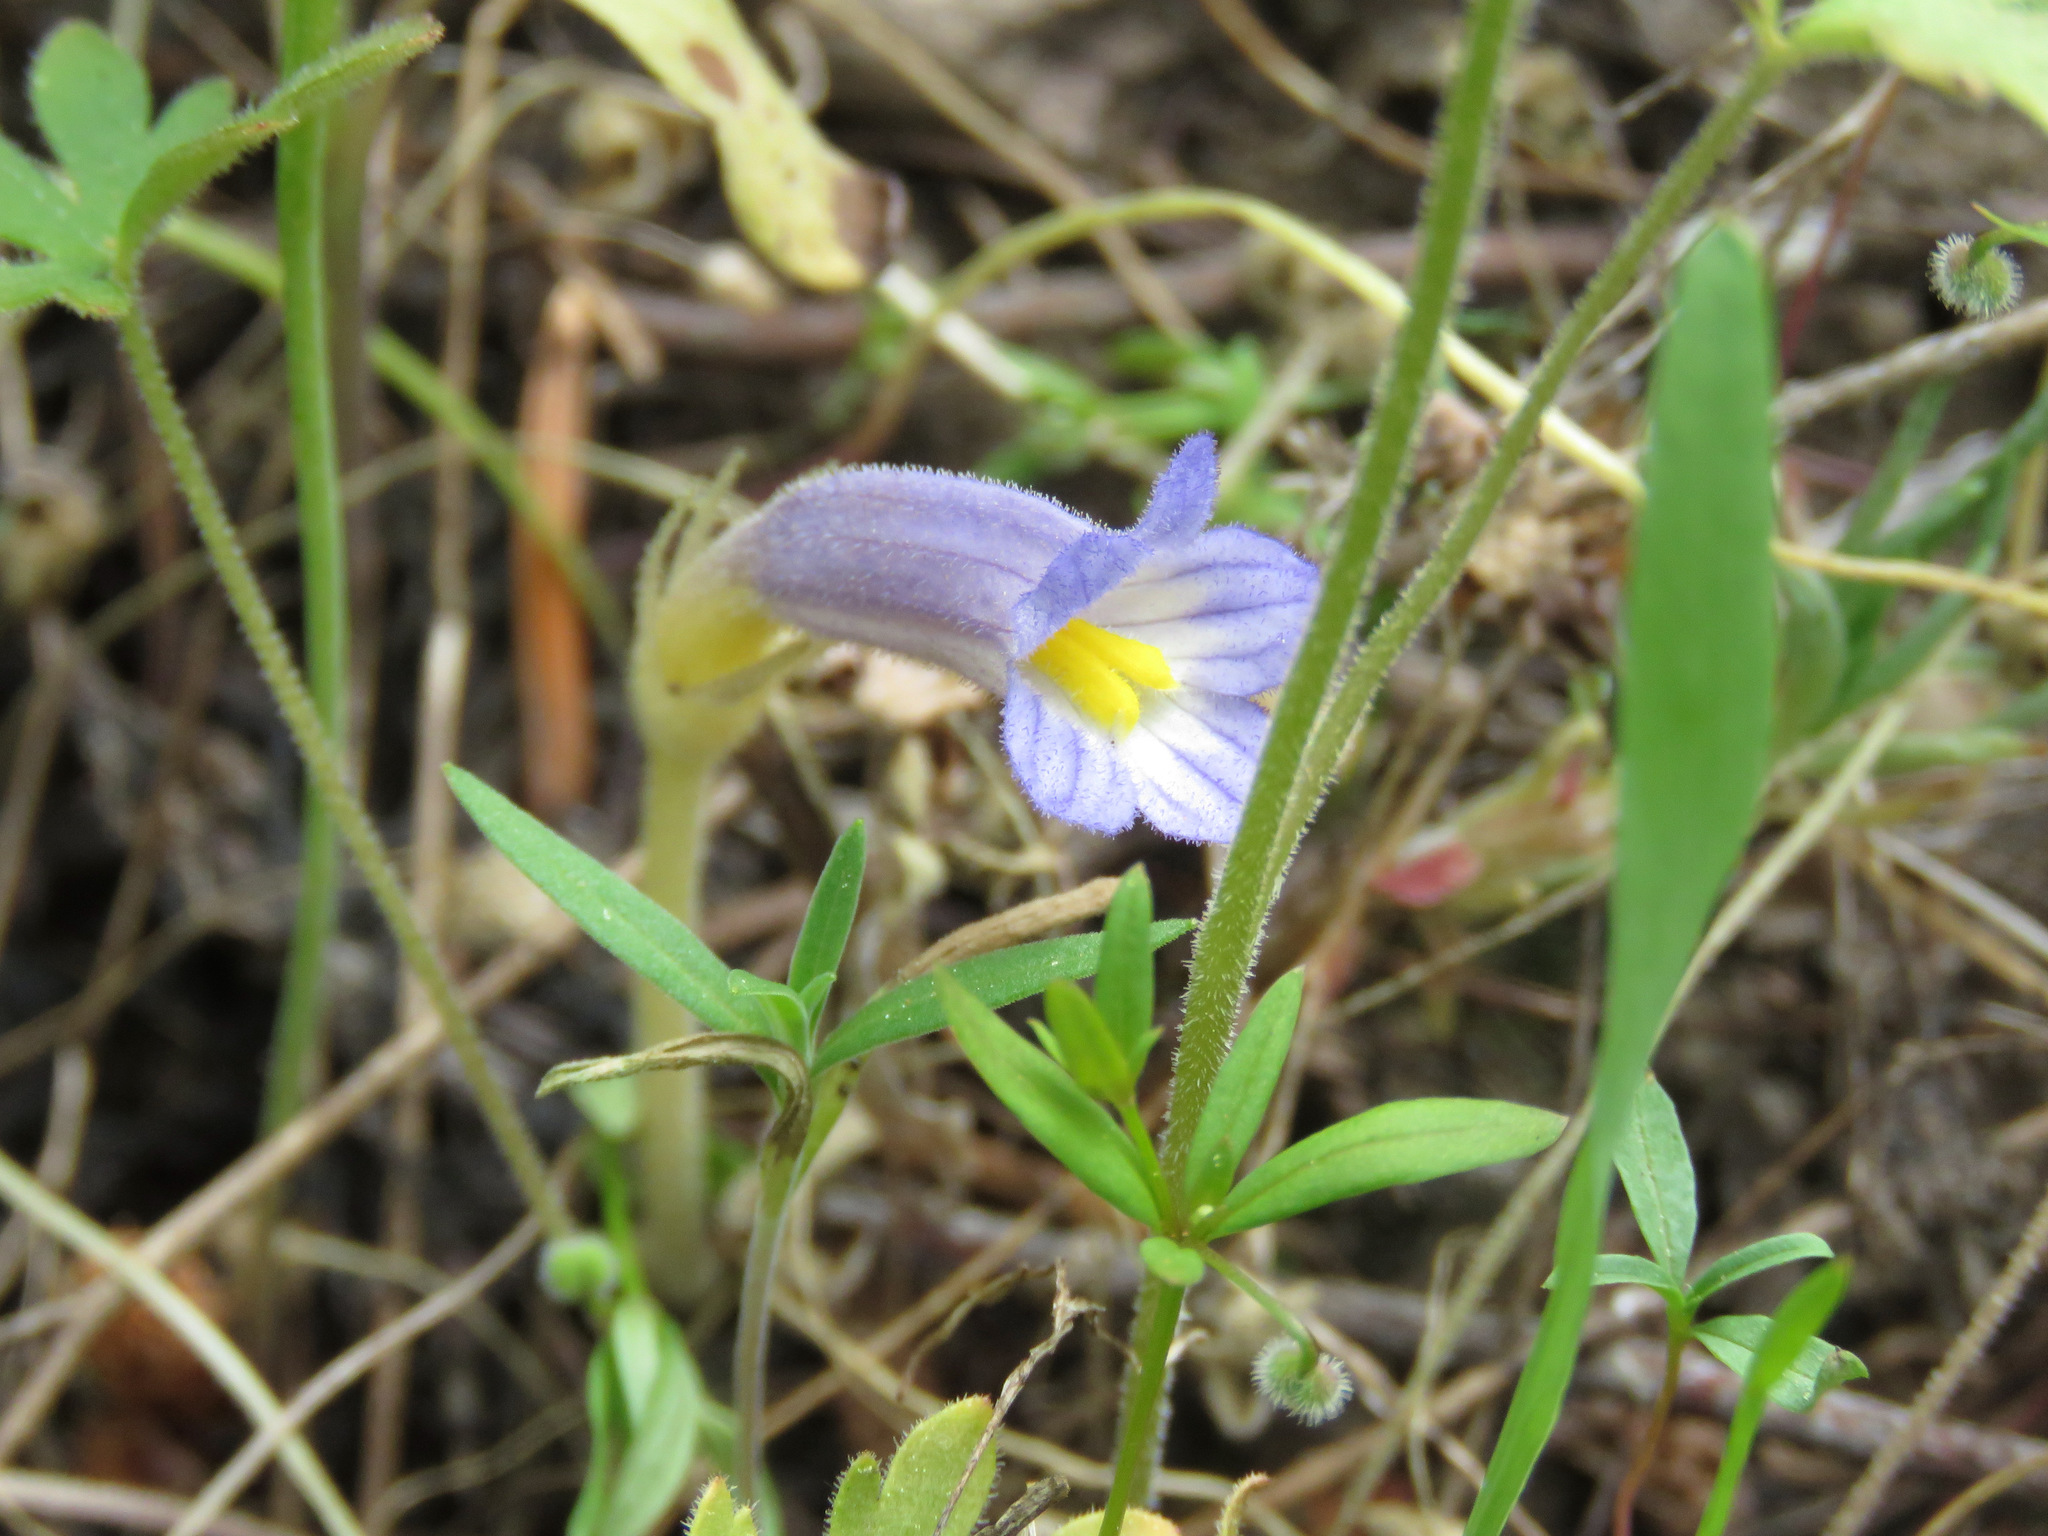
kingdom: Plantae
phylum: Tracheophyta
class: Magnoliopsida
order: Lamiales
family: Orobanchaceae
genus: Aphyllon
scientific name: Aphyllon uniflorum
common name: One-flowered broomrape
